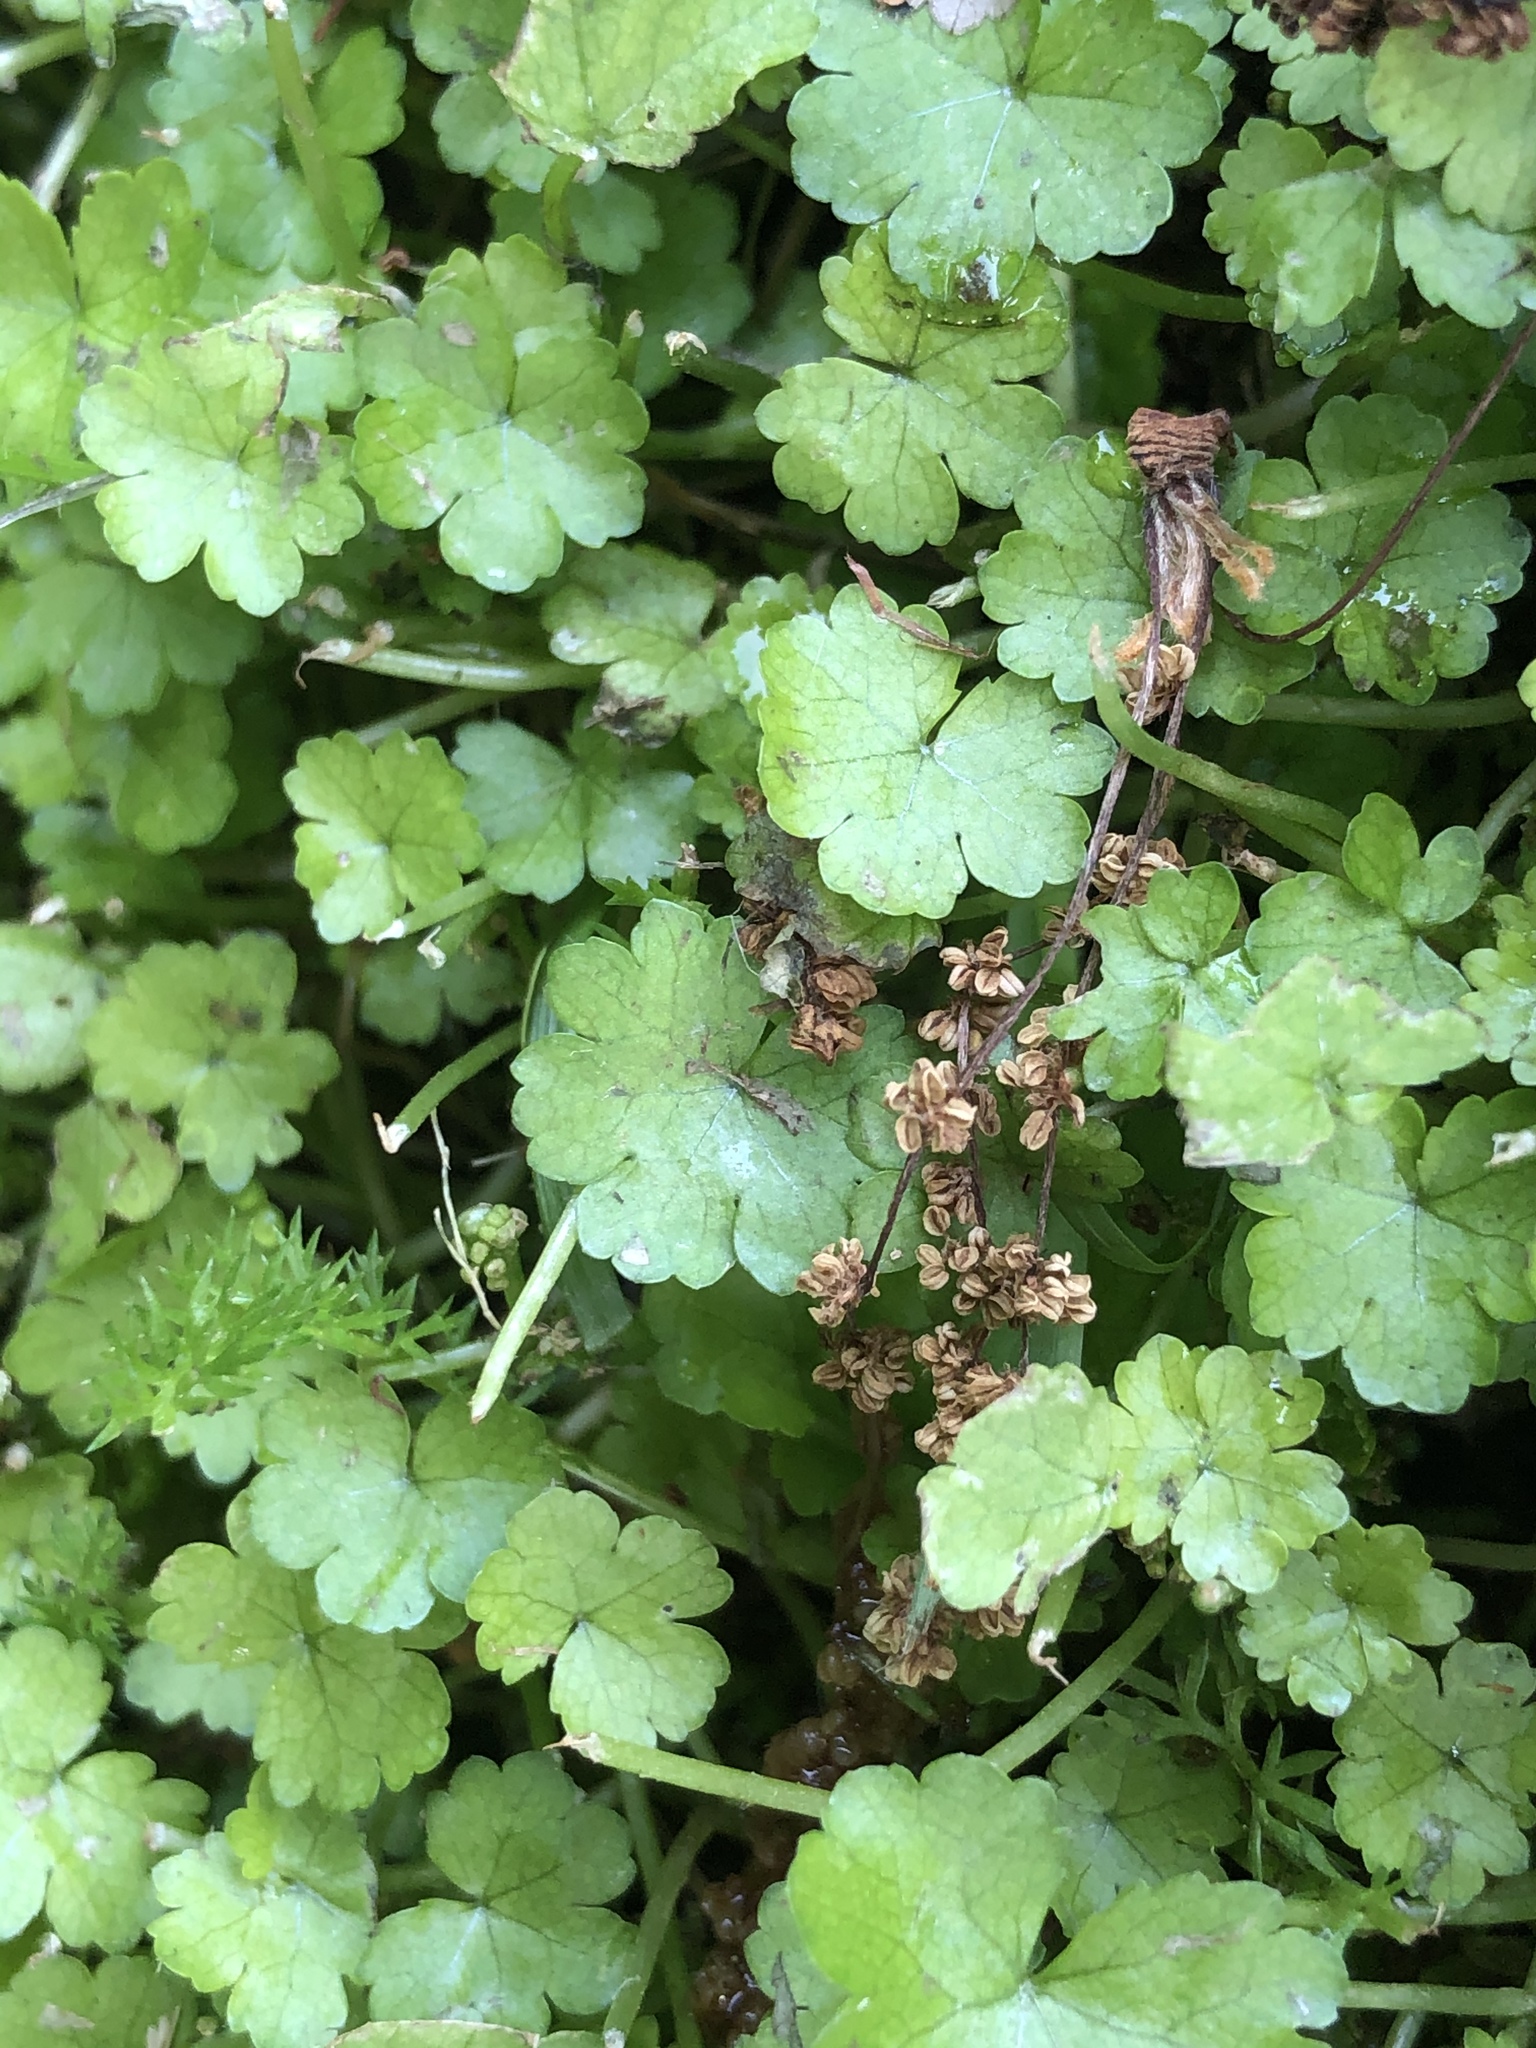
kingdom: Plantae
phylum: Tracheophyta
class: Magnoliopsida
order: Apiales
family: Araliaceae
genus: Hydrocotyle
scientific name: Hydrocotyle heteromeria
